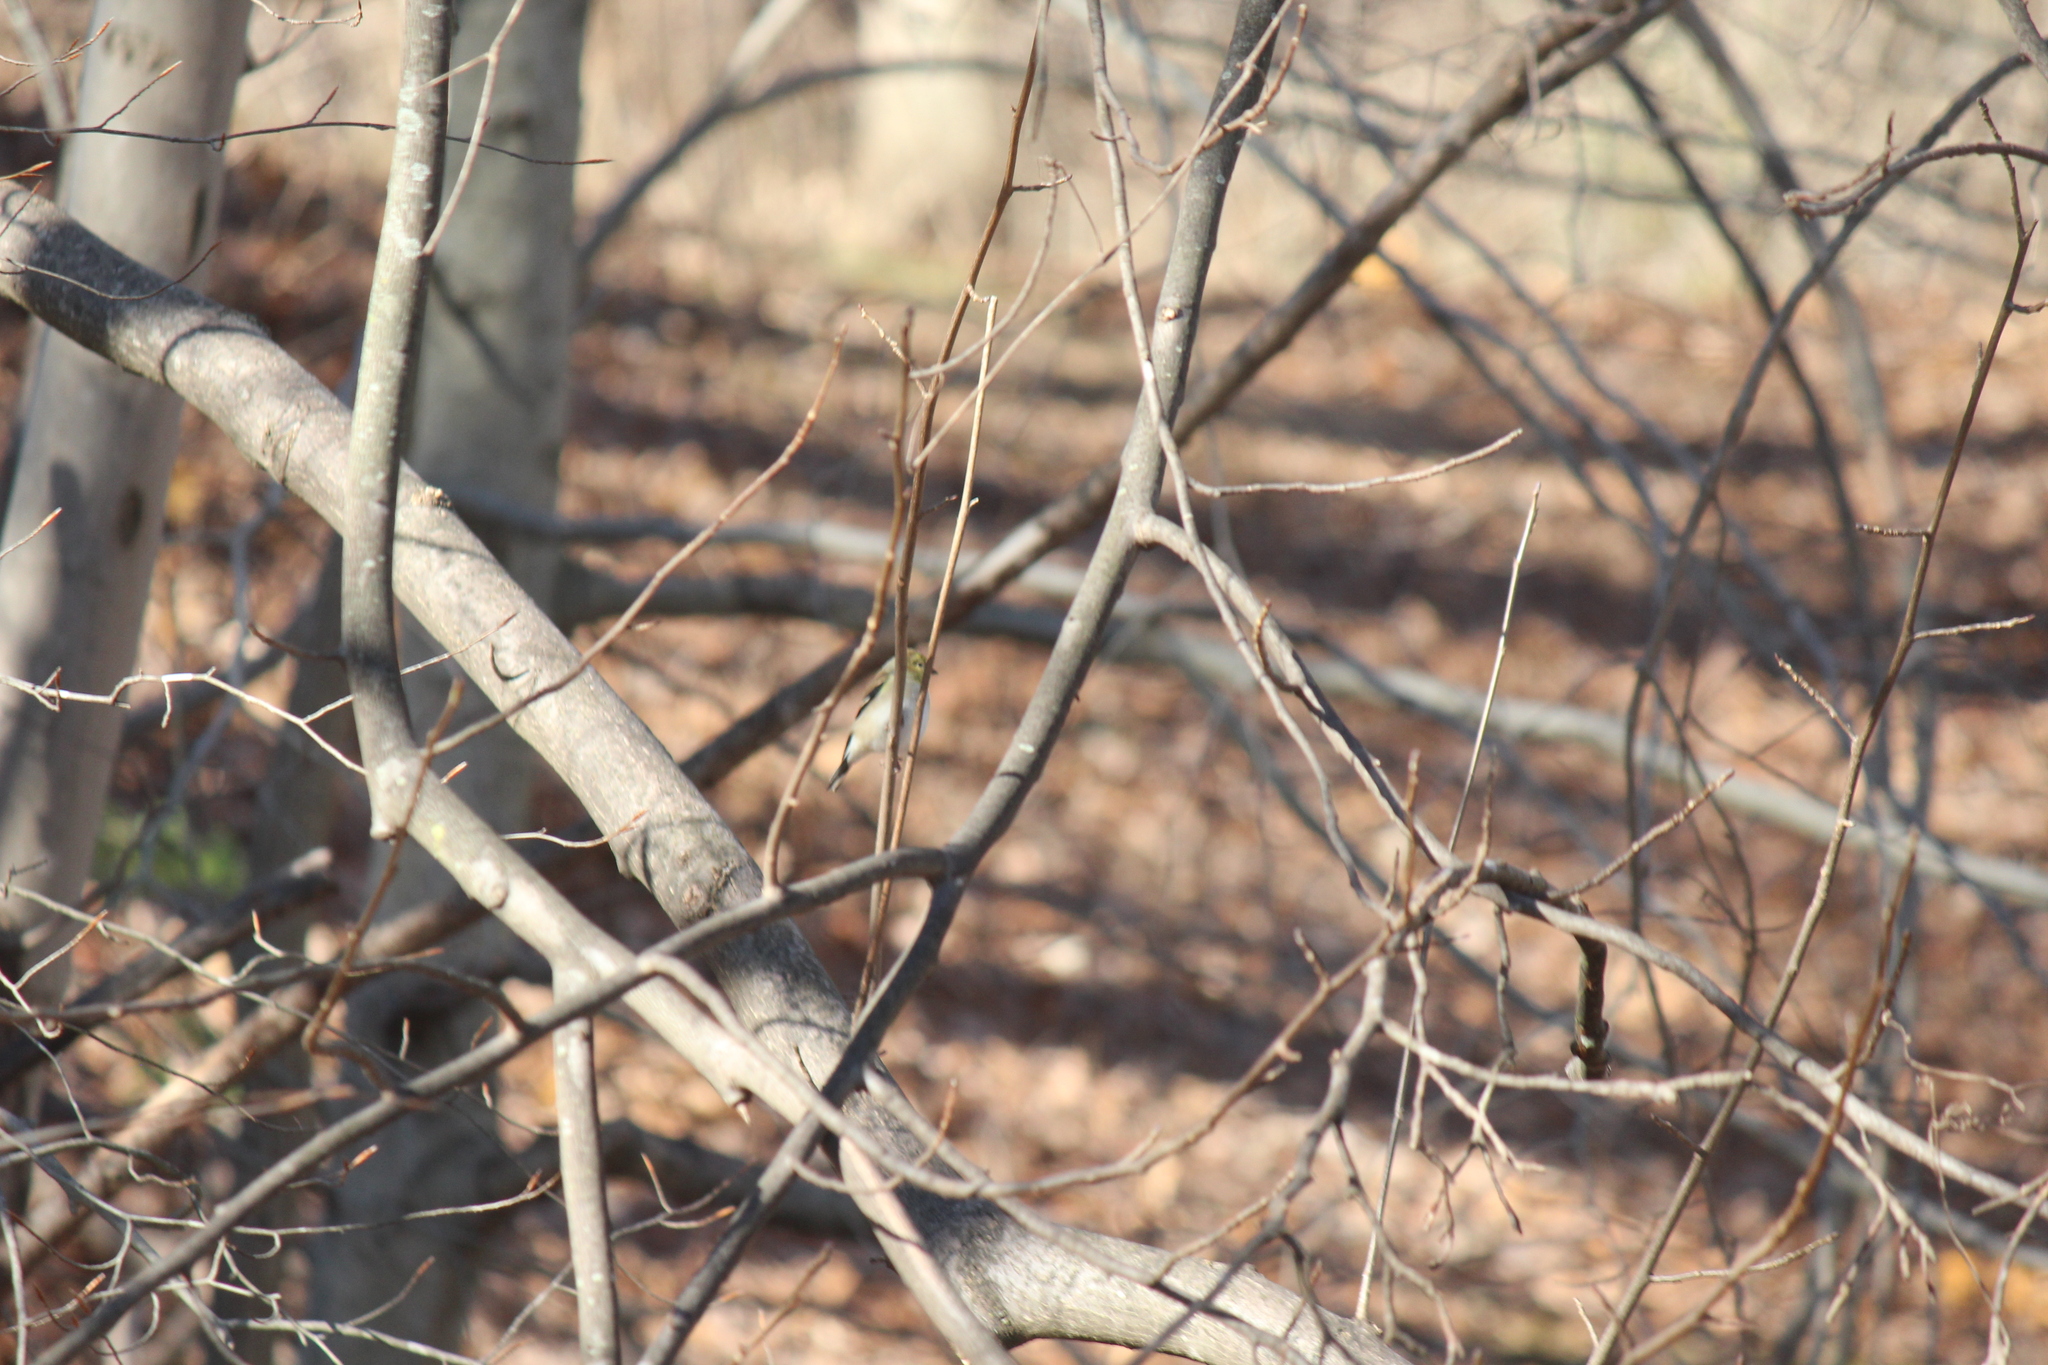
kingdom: Animalia
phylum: Chordata
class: Aves
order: Passeriformes
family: Fringillidae
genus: Spinus
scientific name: Spinus tristis
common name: American goldfinch
